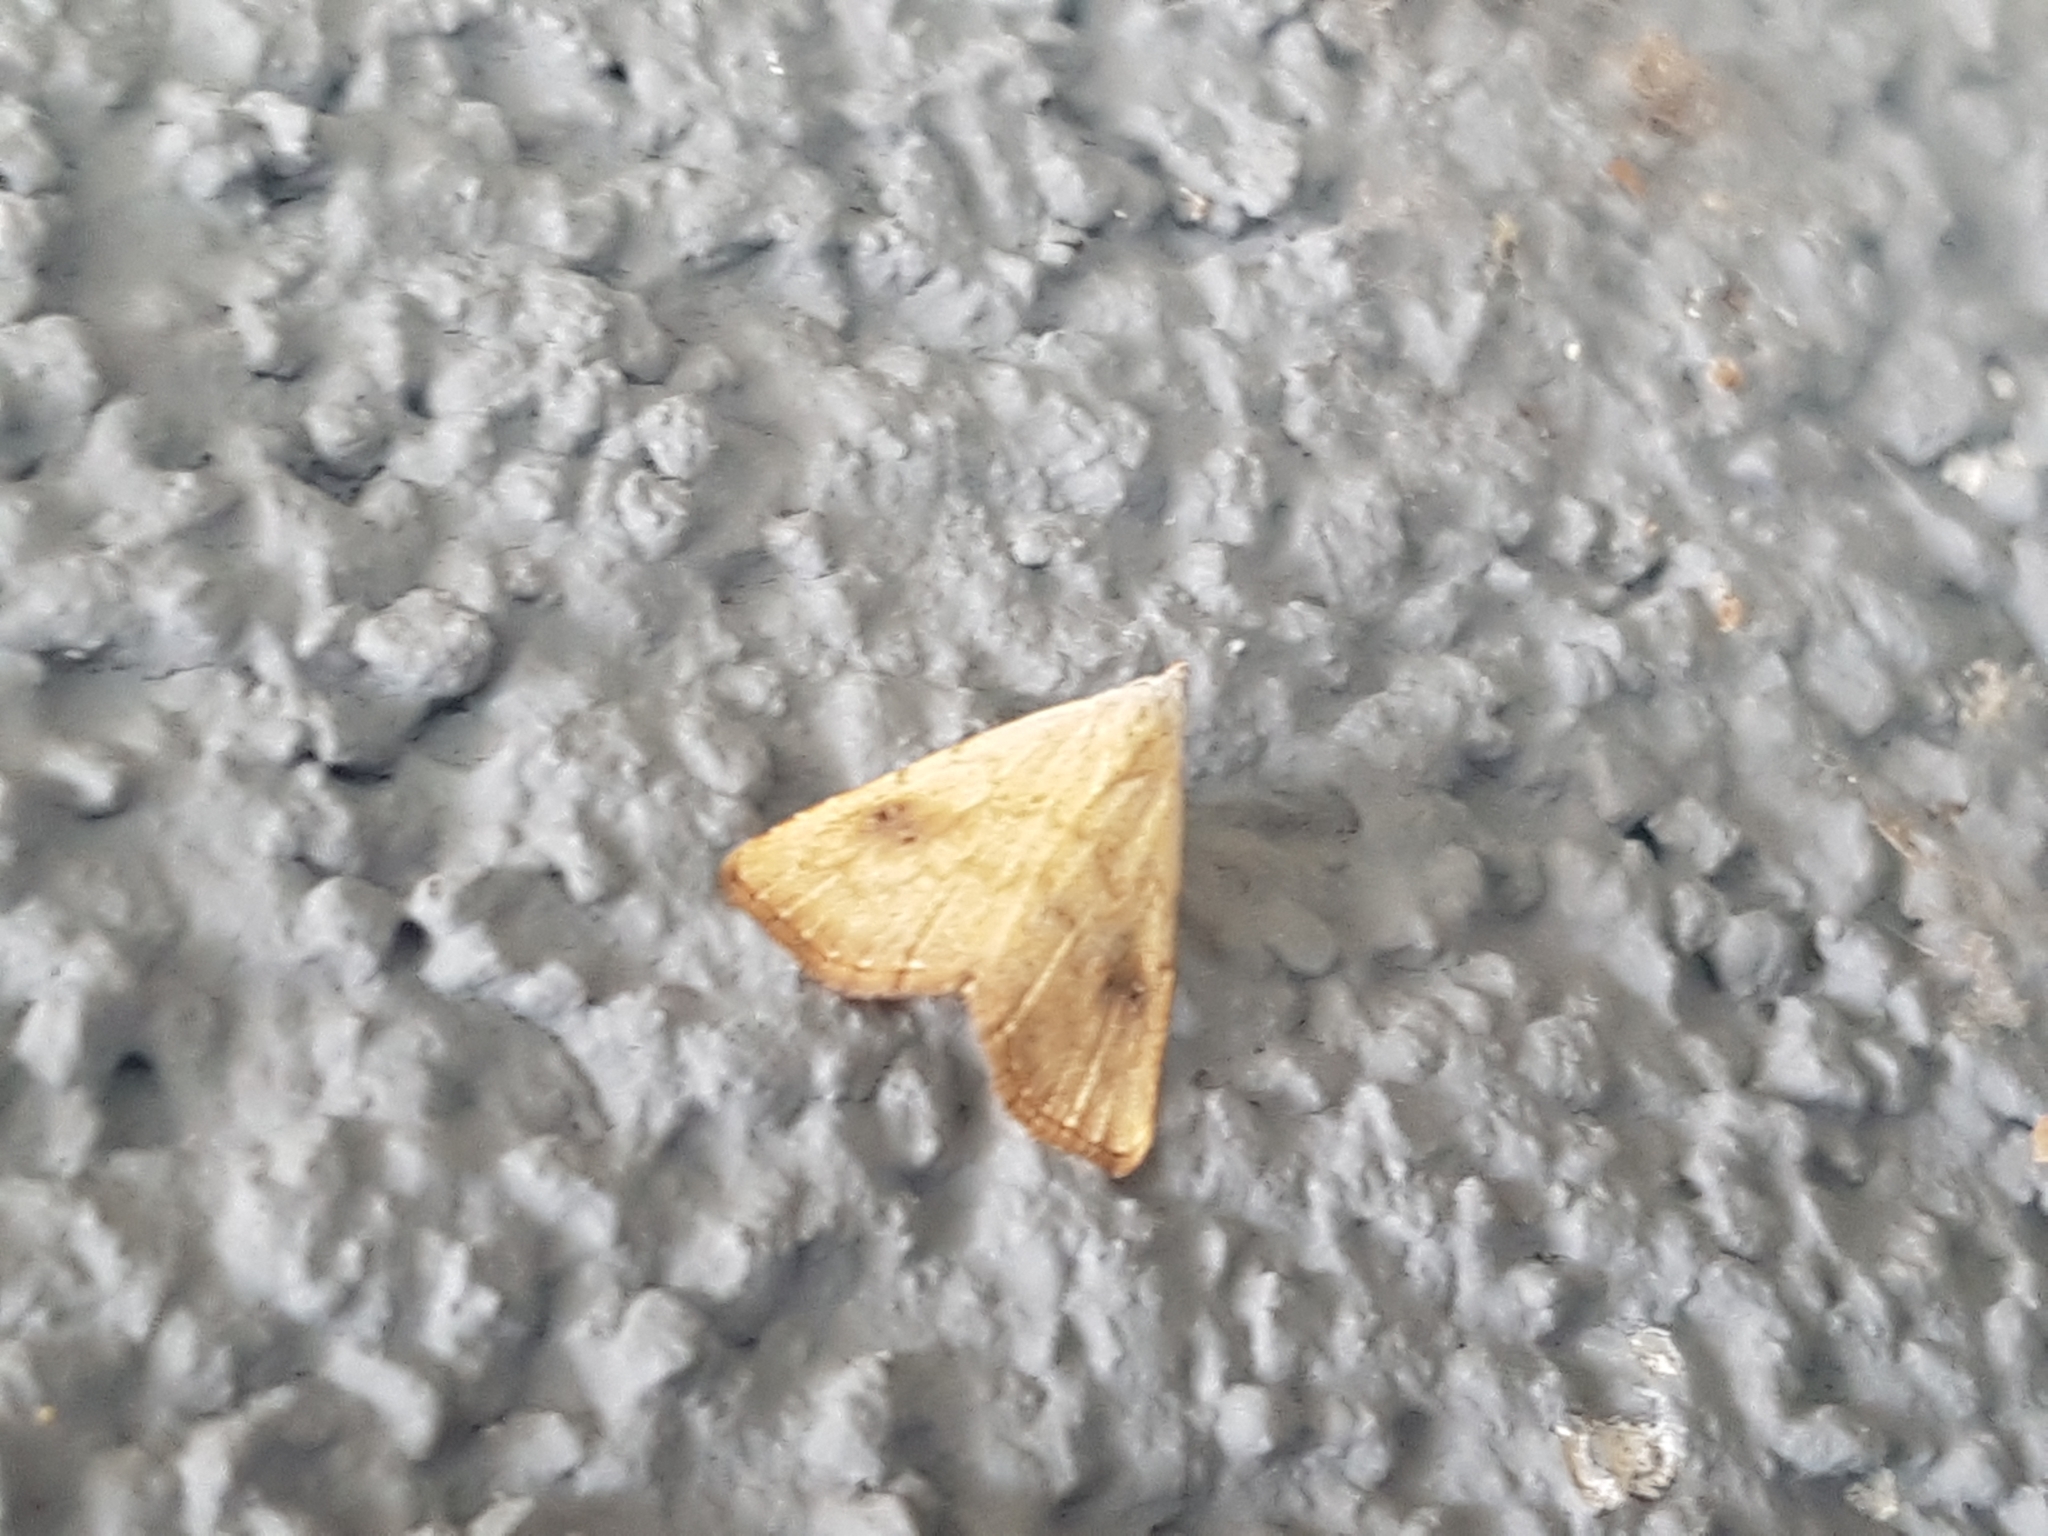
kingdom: Animalia
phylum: Arthropoda
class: Insecta
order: Lepidoptera
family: Erebidae
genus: Rivula
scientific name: Rivula sericealis
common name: Straw dot
